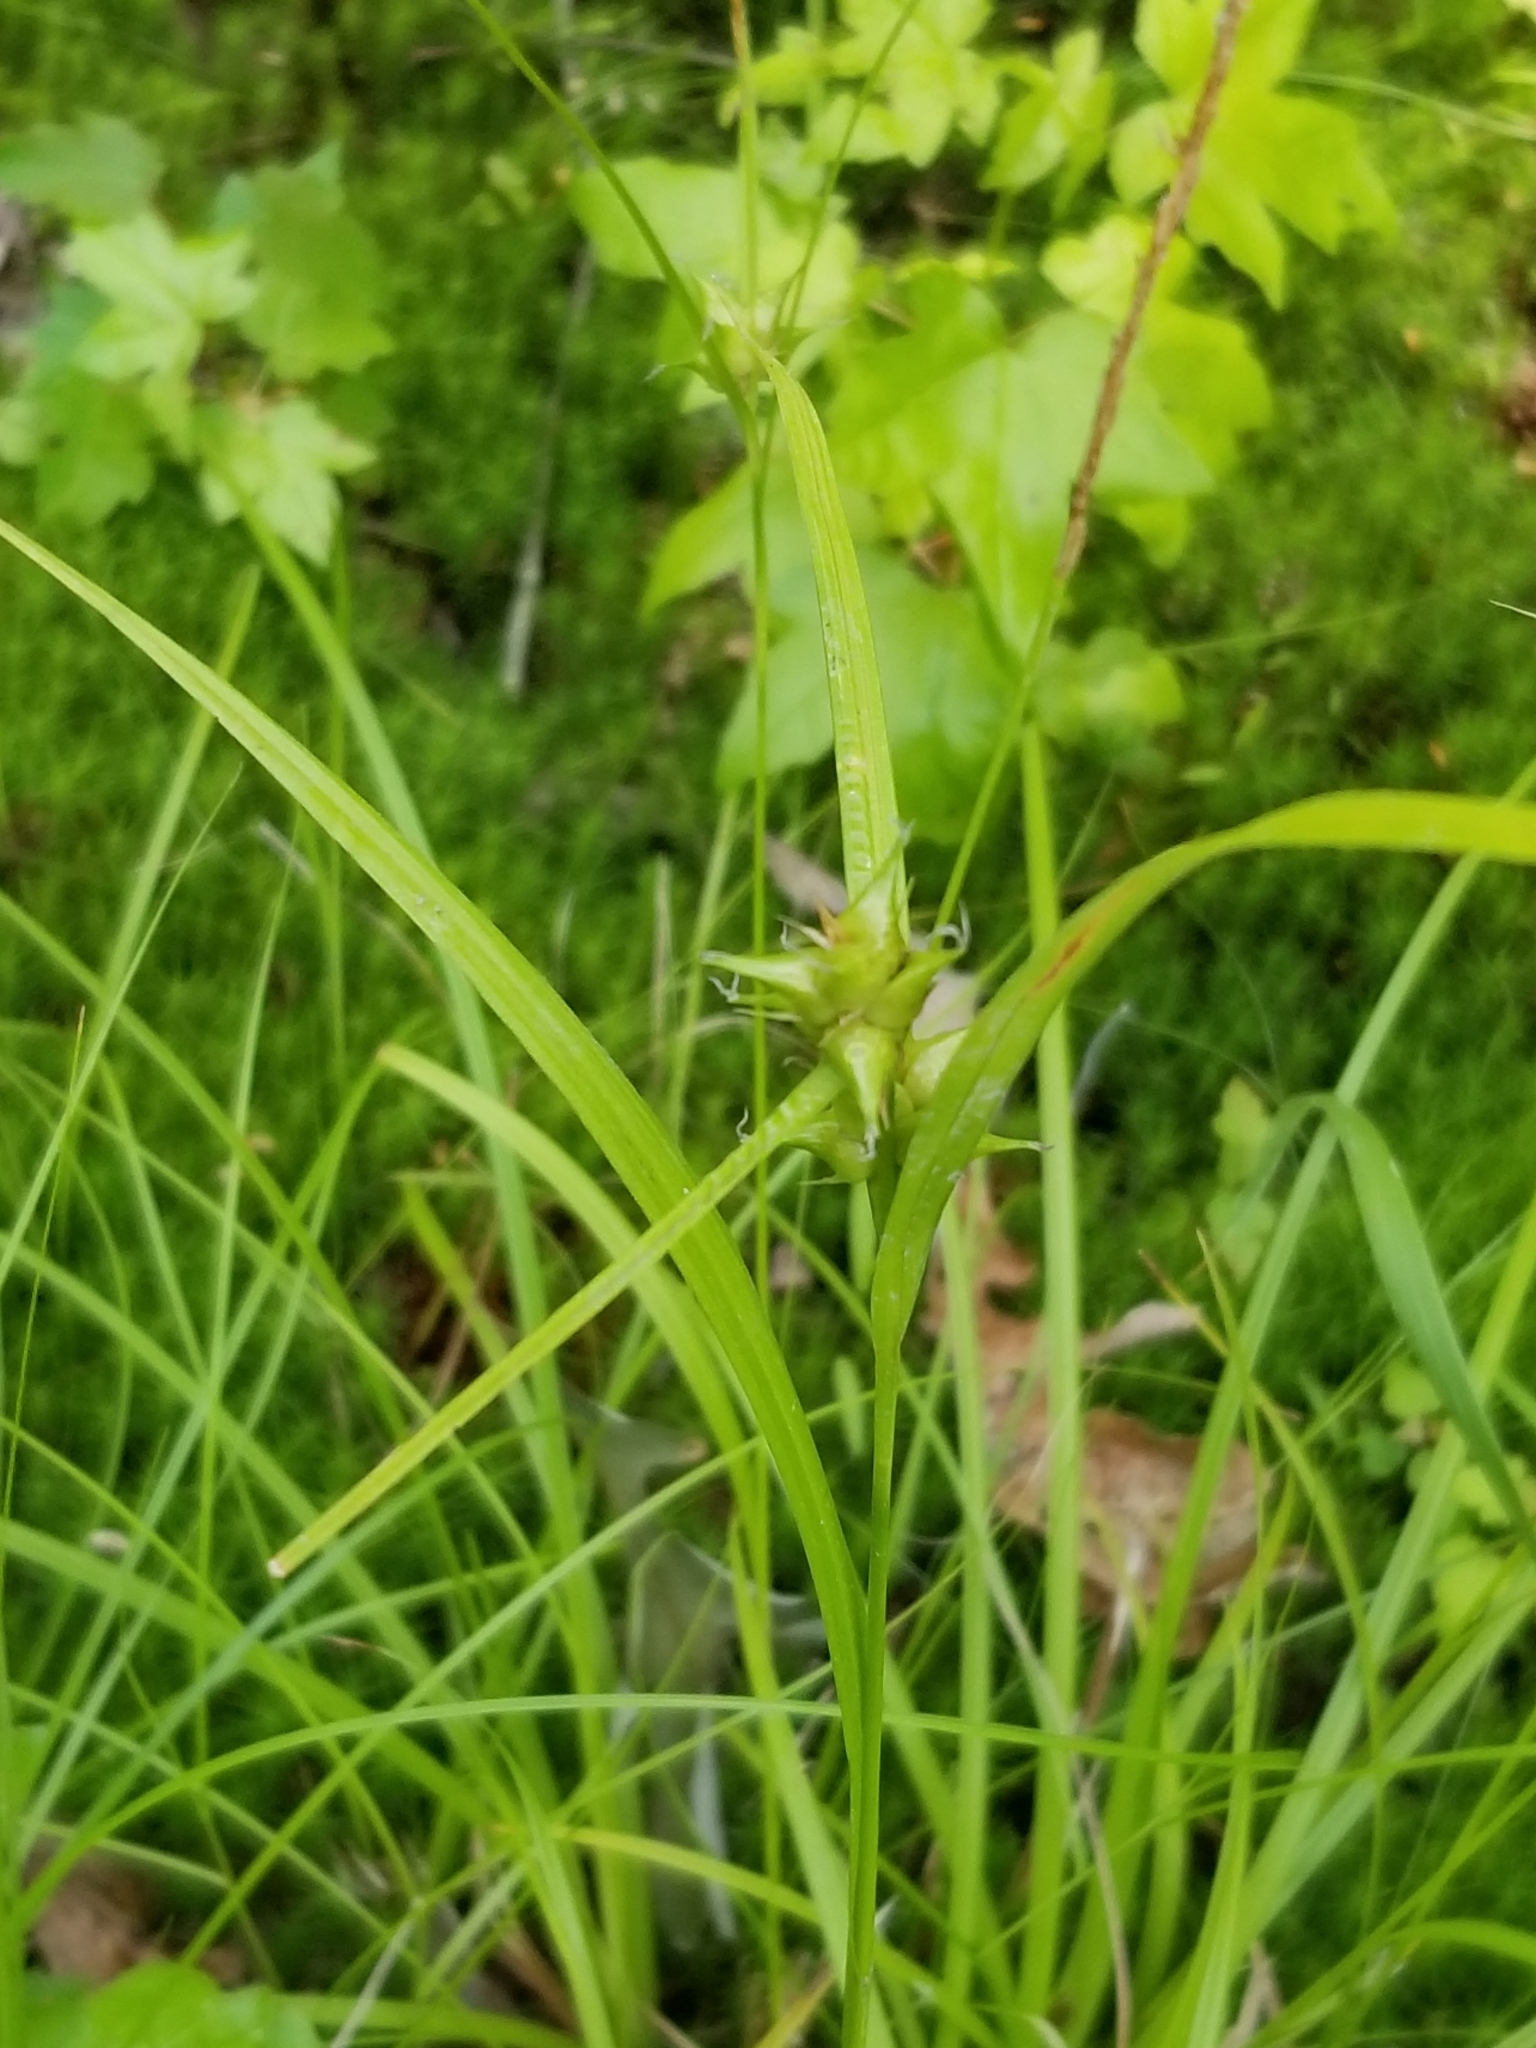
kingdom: Plantae
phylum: Tracheophyta
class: Liliopsida
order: Poales
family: Cyperaceae
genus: Carex
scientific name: Carex intumescens
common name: Greater bladder sedge
